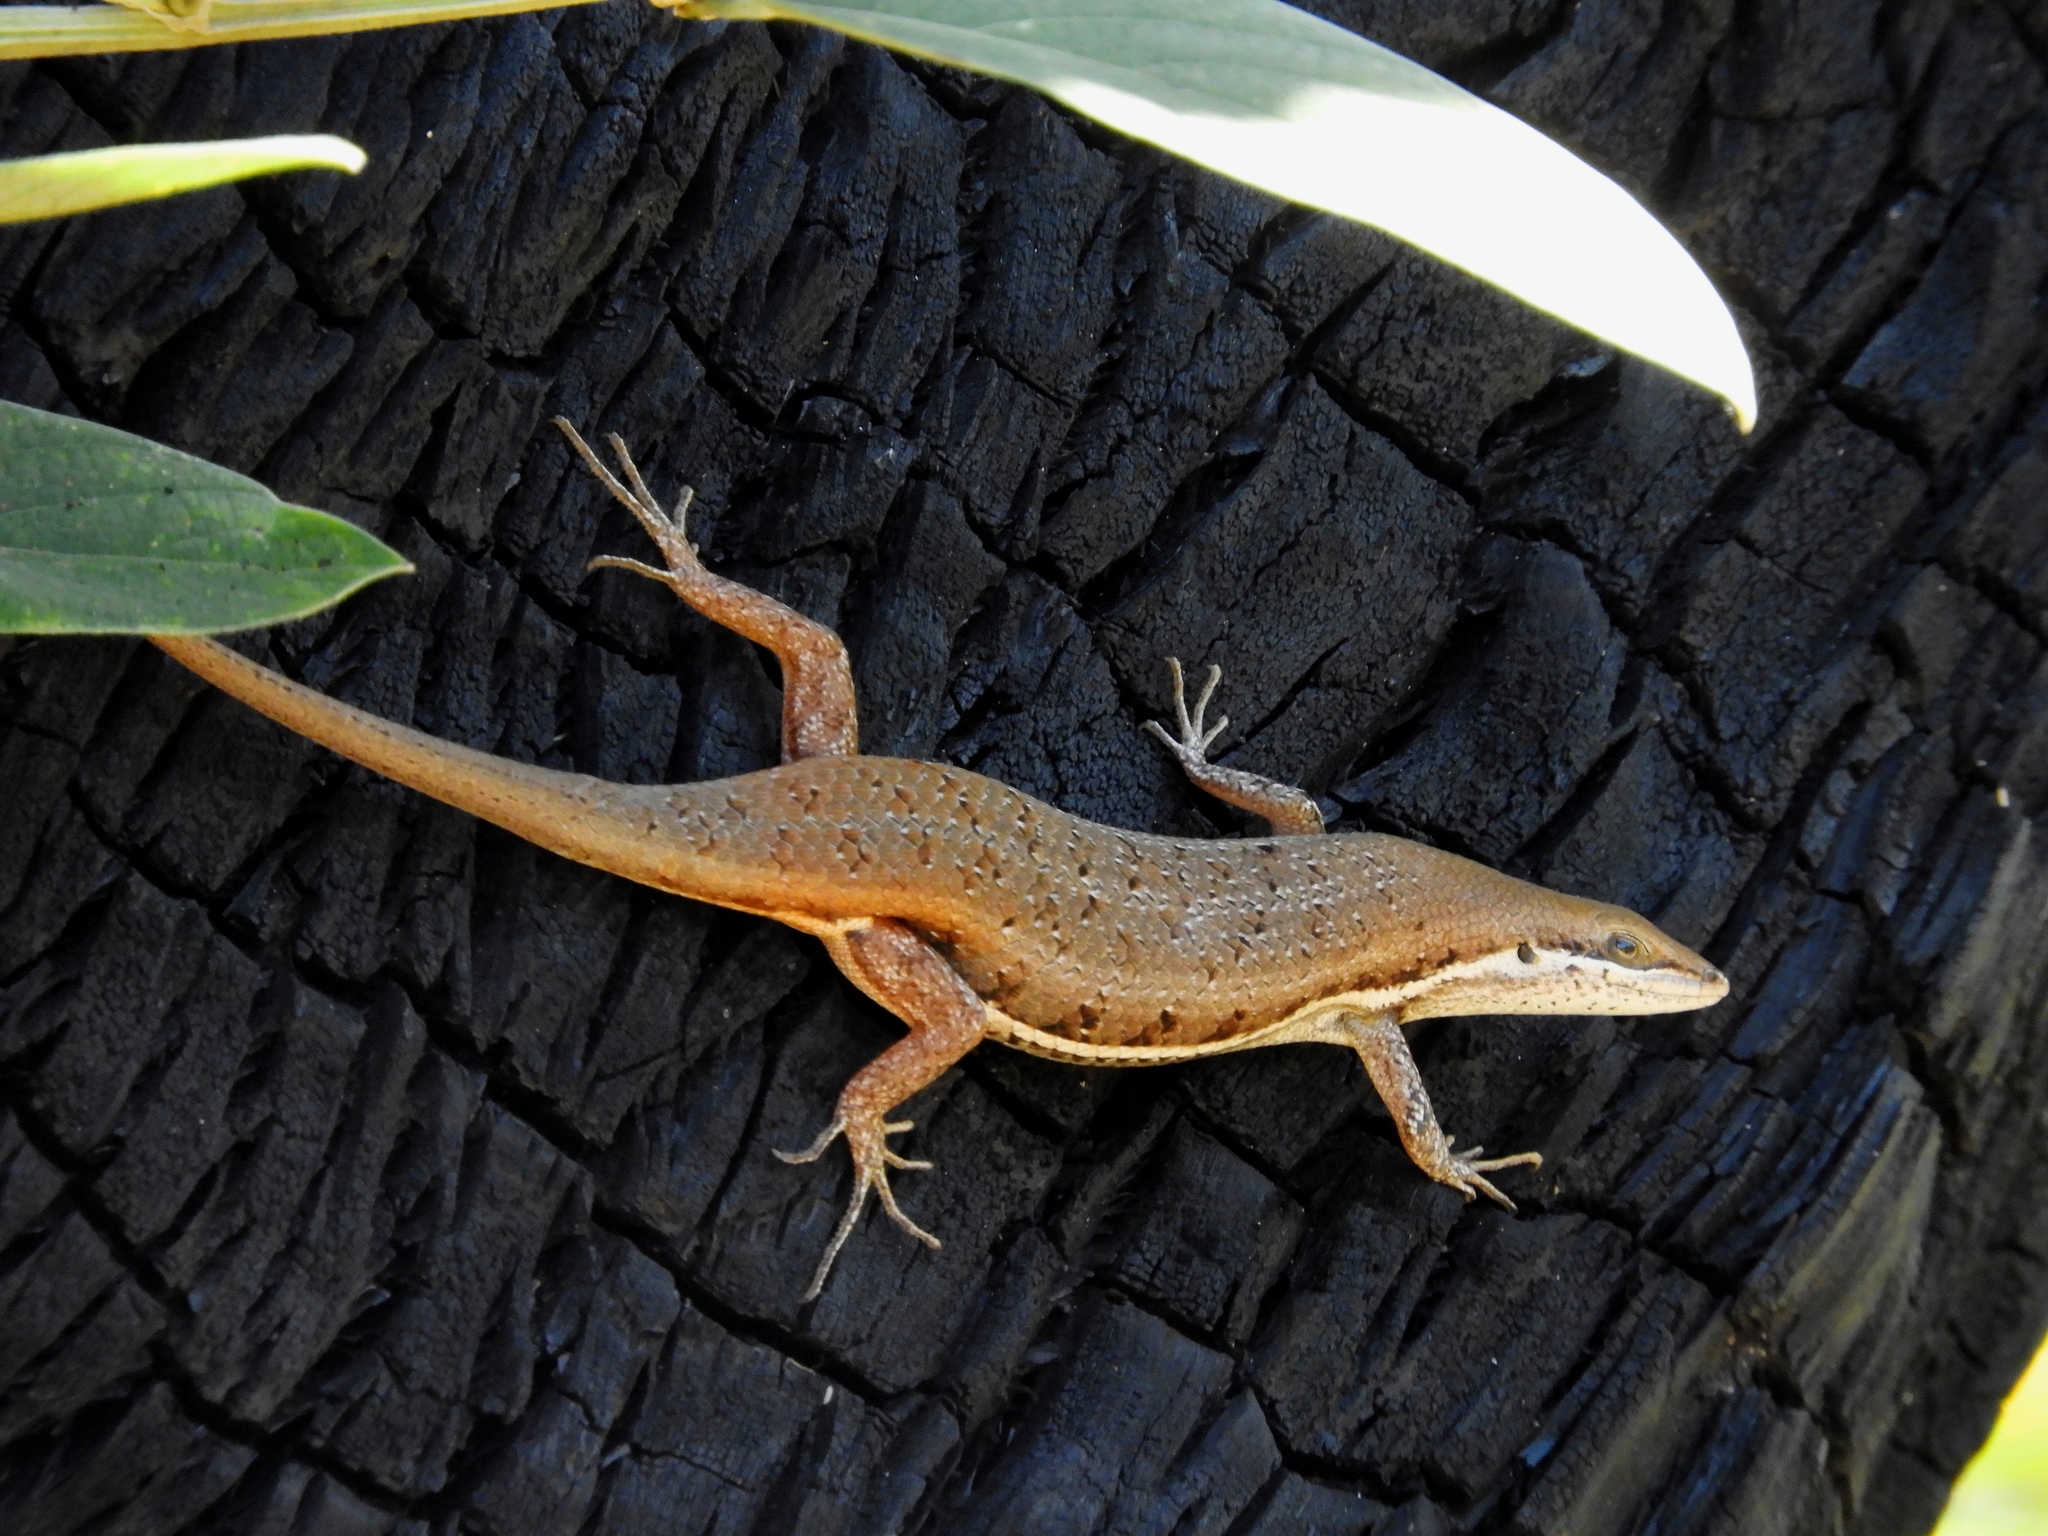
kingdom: Animalia
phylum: Chordata
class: Squamata
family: Scincidae
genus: Trachylepis
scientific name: Trachylepis varia
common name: Eastern variable skink
